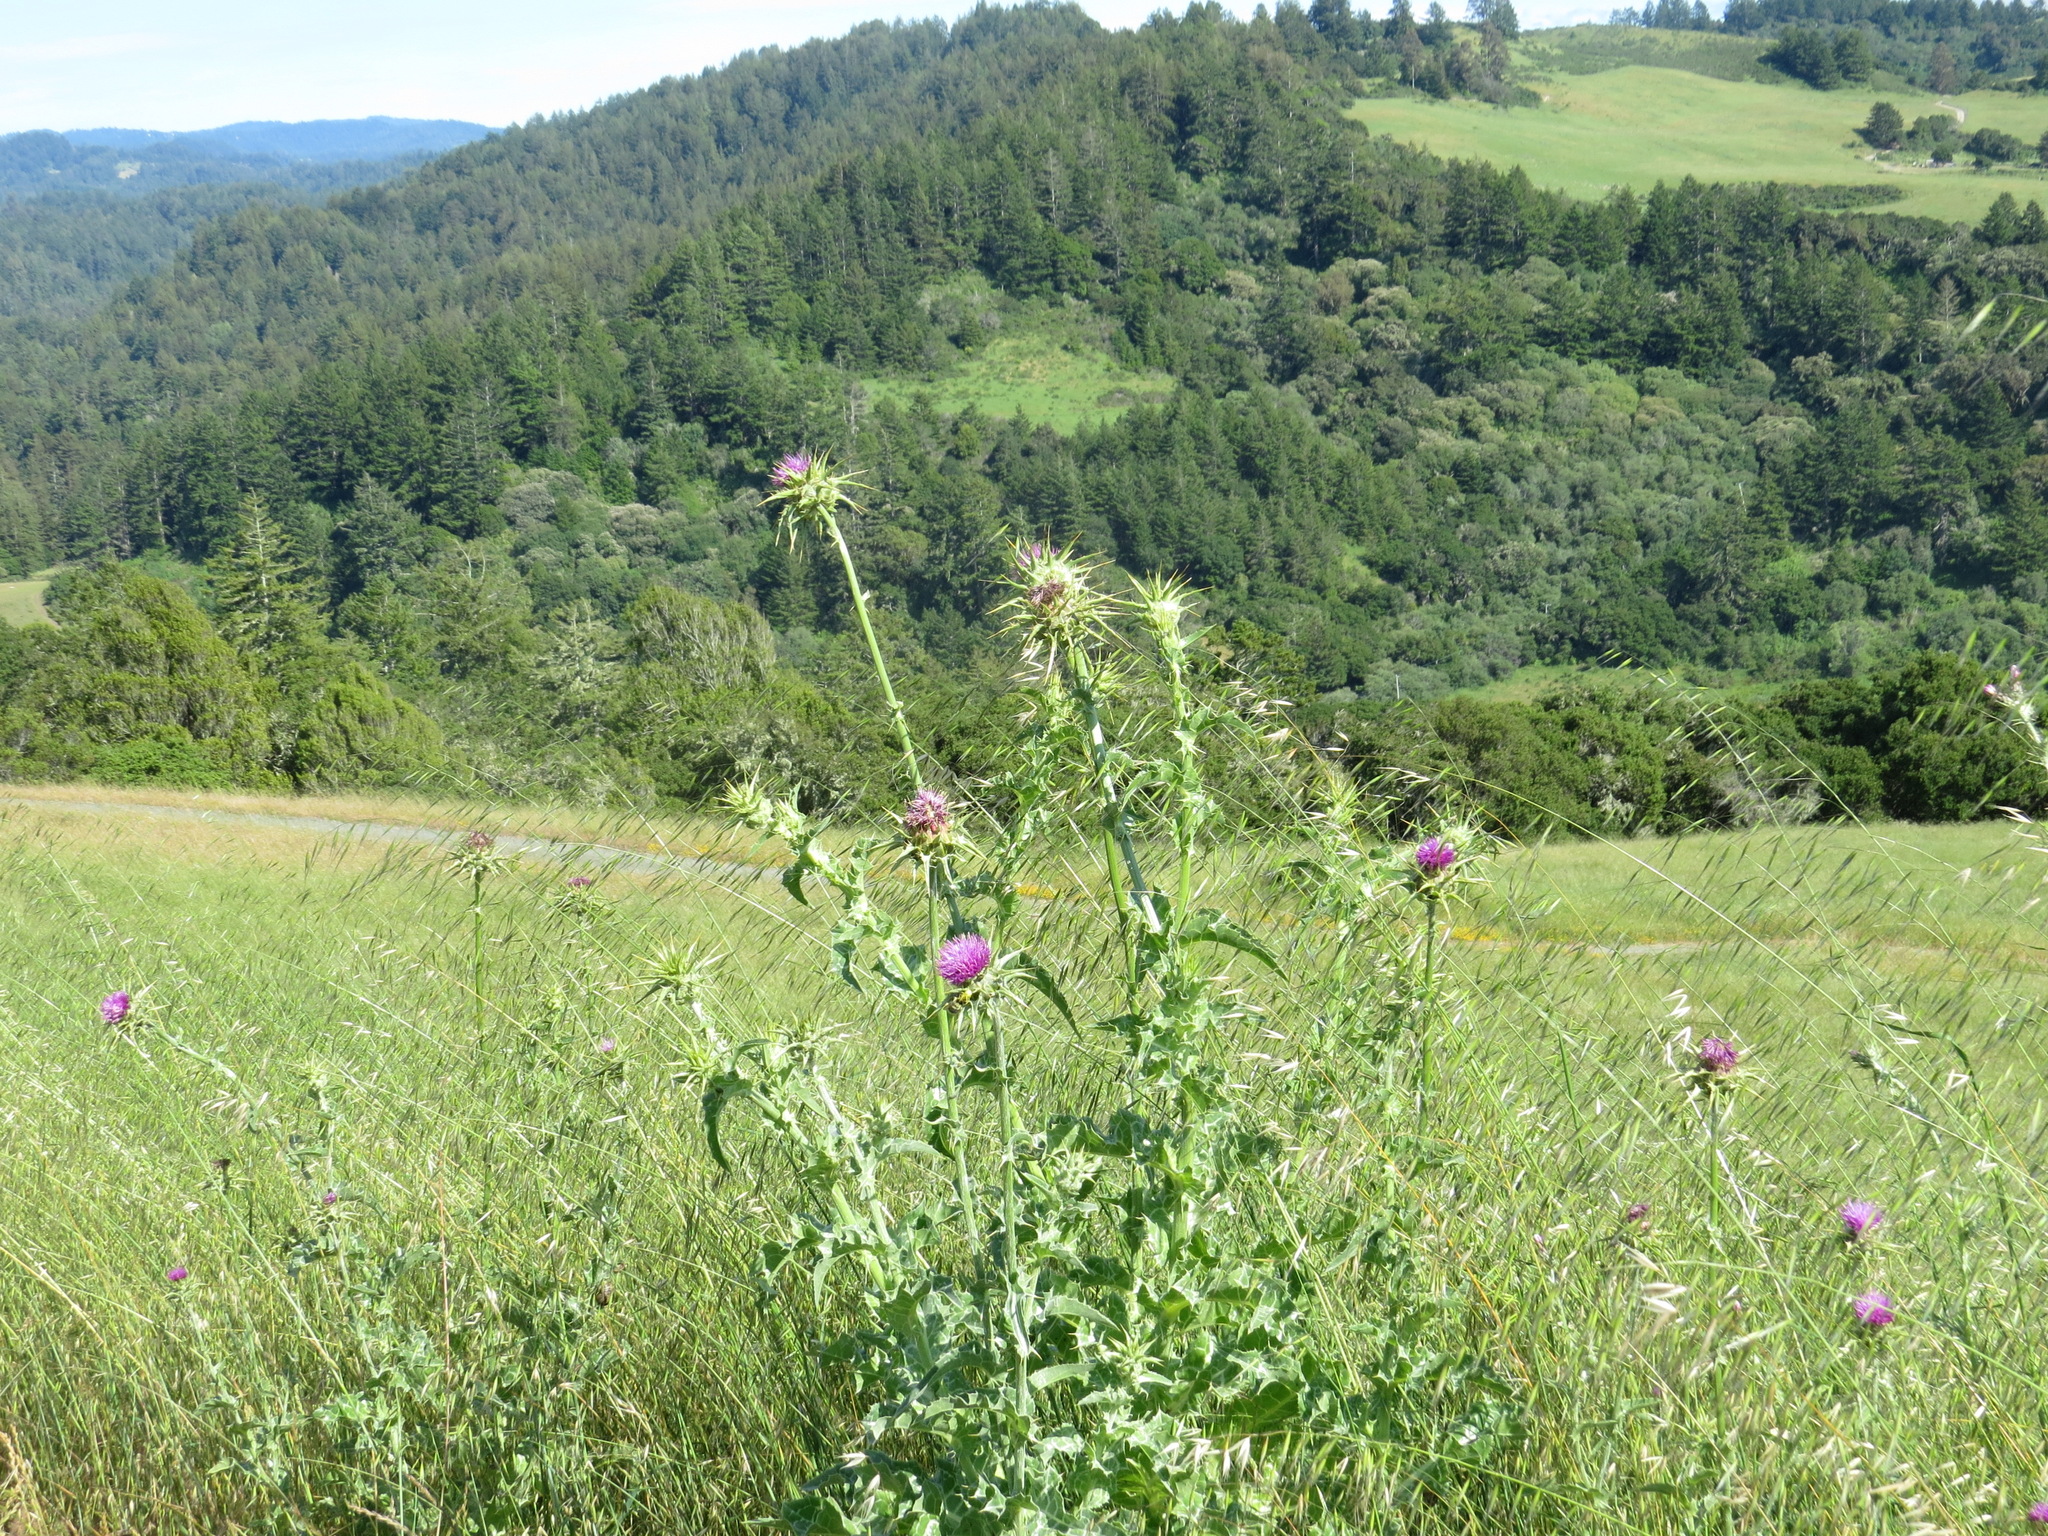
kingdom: Plantae
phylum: Tracheophyta
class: Magnoliopsida
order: Asterales
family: Asteraceae
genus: Silybum
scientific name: Silybum marianum
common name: Milk thistle
